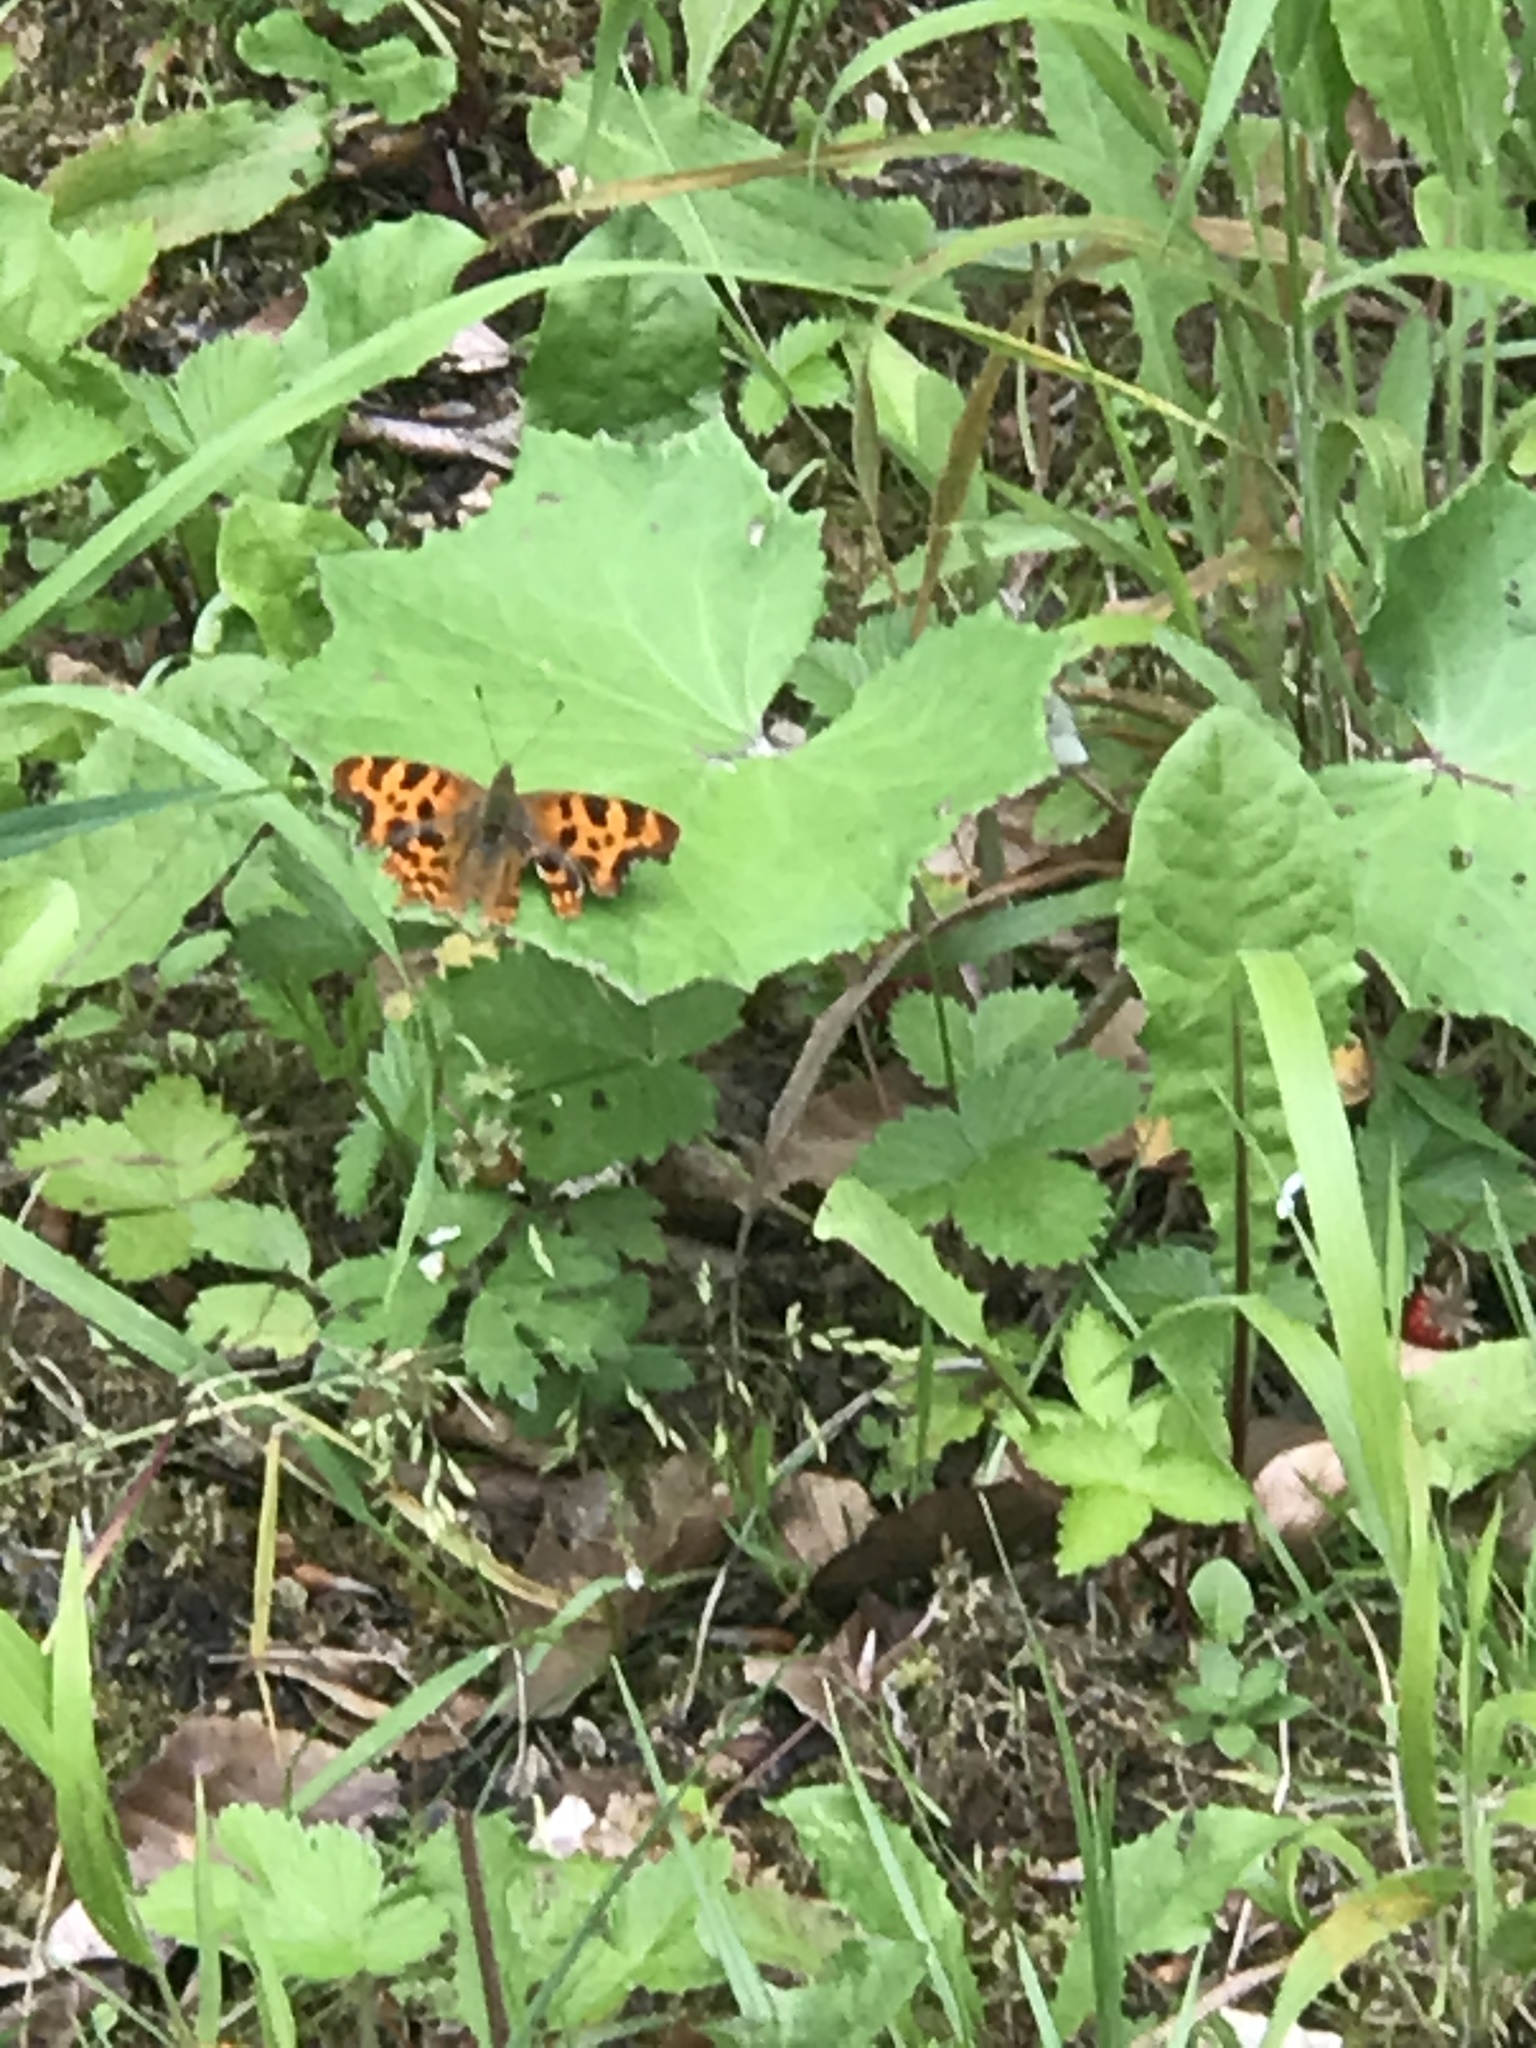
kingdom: Animalia
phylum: Arthropoda
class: Insecta
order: Lepidoptera
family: Nymphalidae
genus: Polygonia
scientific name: Polygonia c-album
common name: Comma
